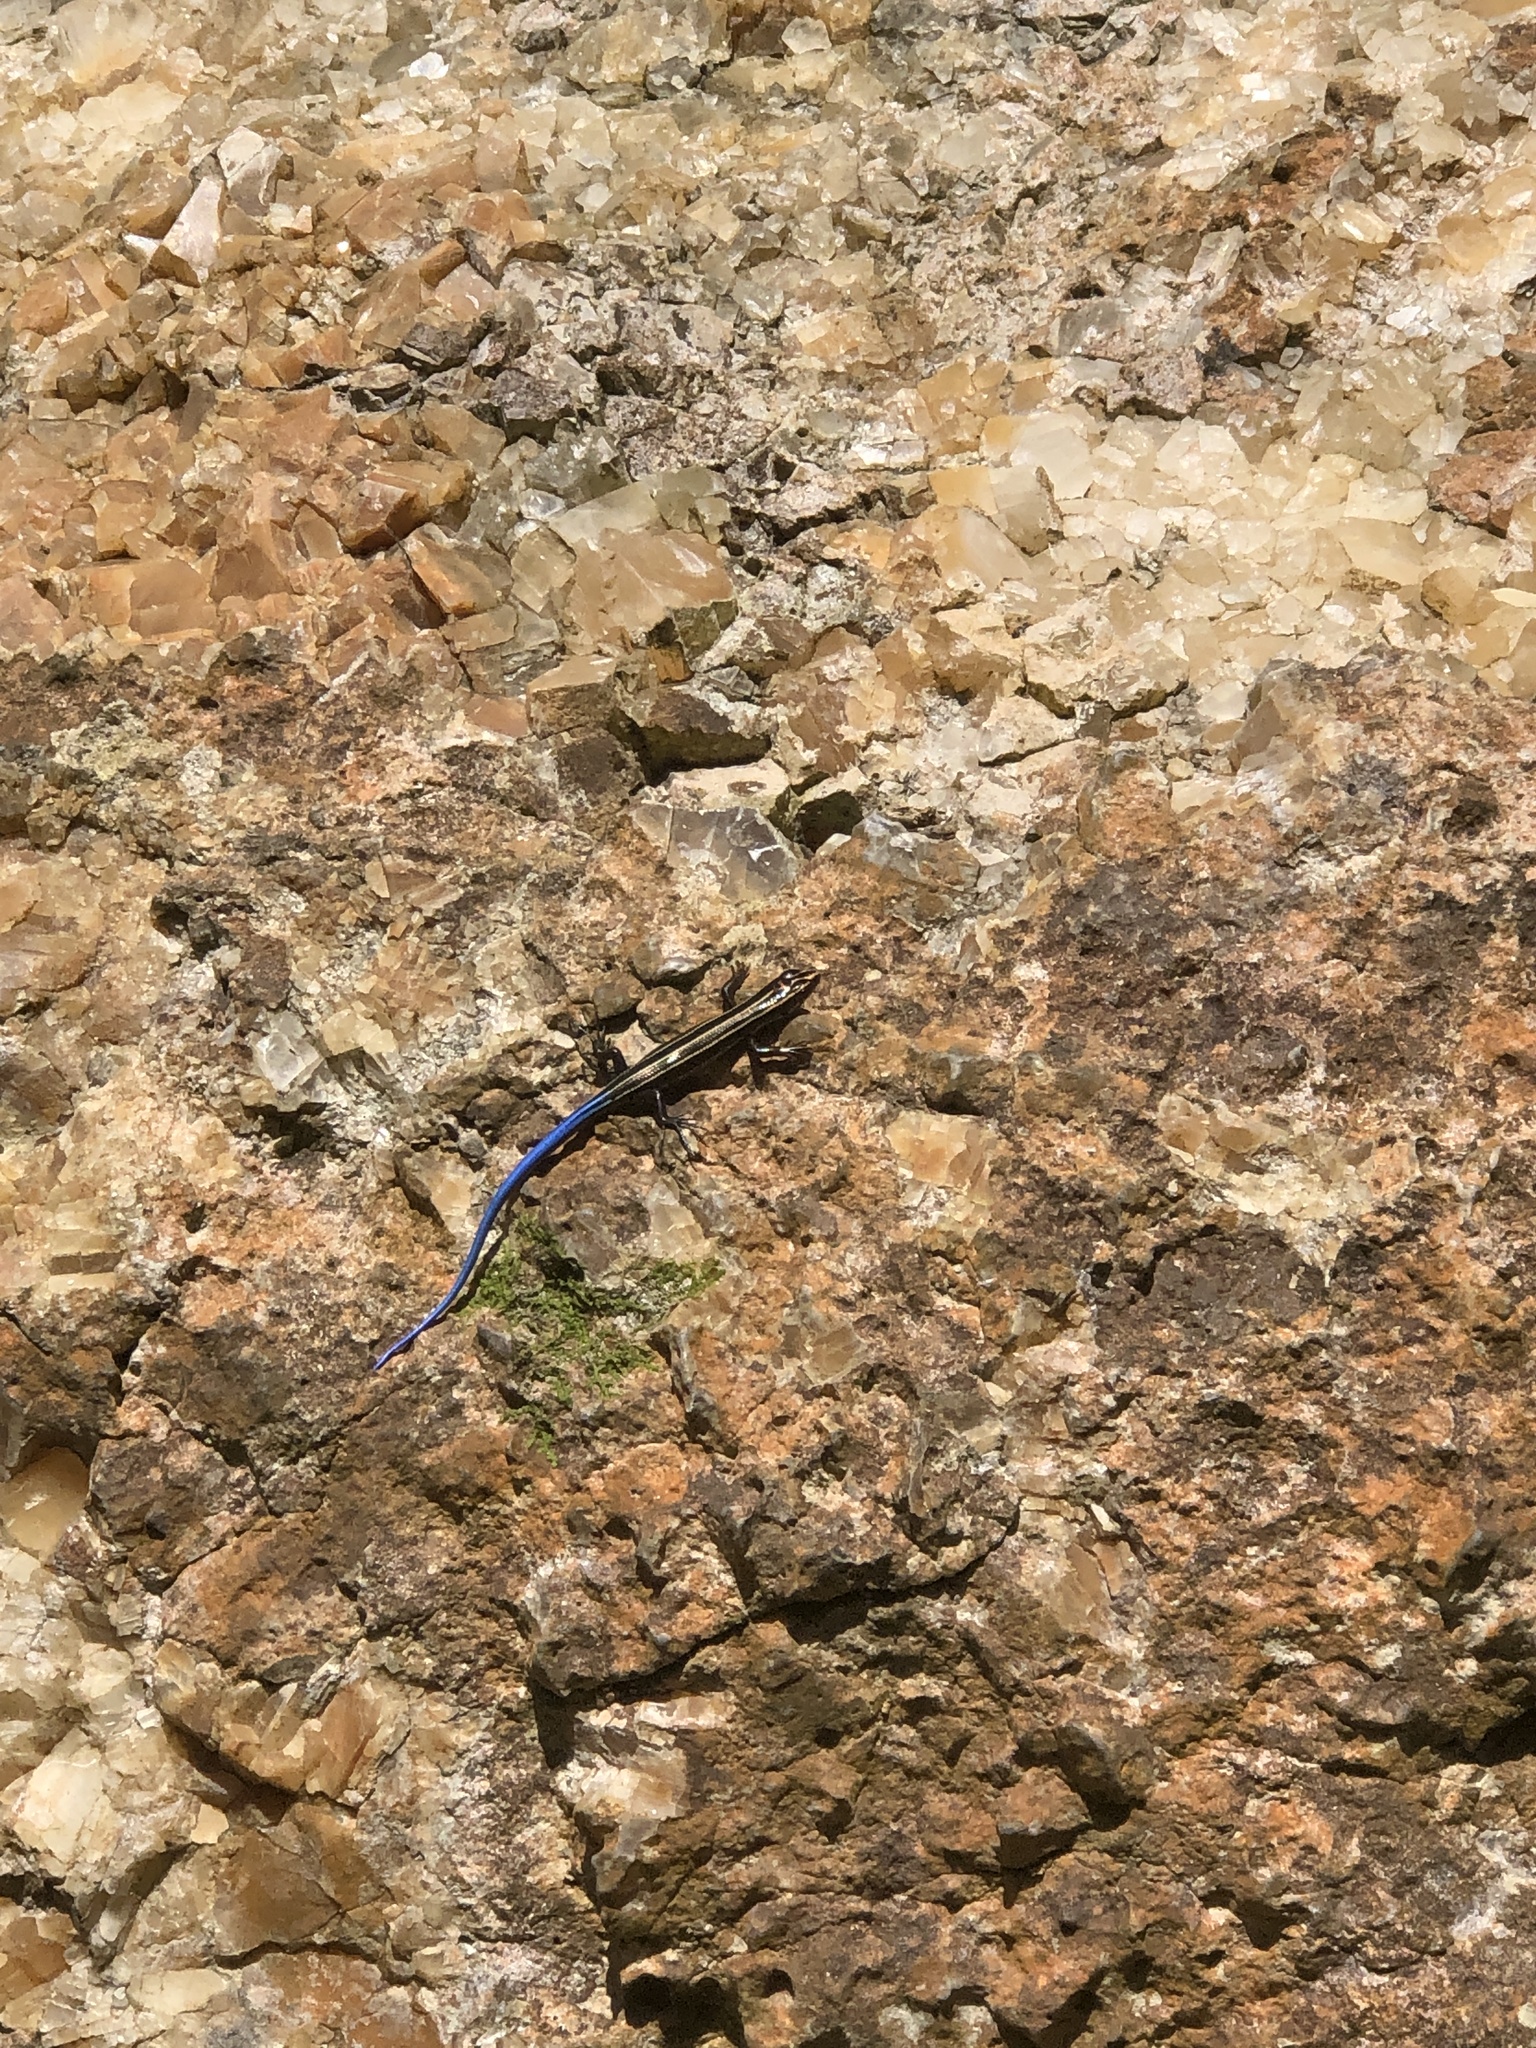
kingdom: Animalia
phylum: Chordata
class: Squamata
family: Scincidae
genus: Plestiodon
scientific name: Plestiodon barbouri
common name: Barbour's eyelid skink
